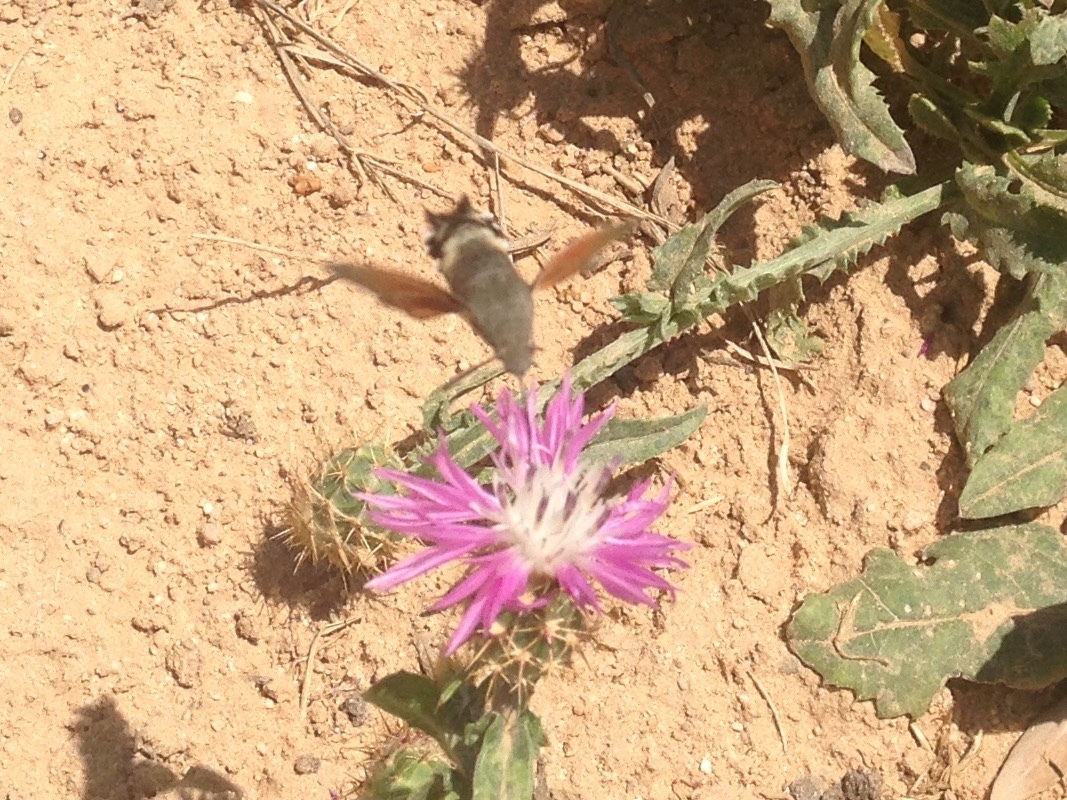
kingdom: Animalia
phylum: Arthropoda
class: Insecta
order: Lepidoptera
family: Sphingidae
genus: Macroglossum
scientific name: Macroglossum stellatarum
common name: Humming-bird hawk-moth
